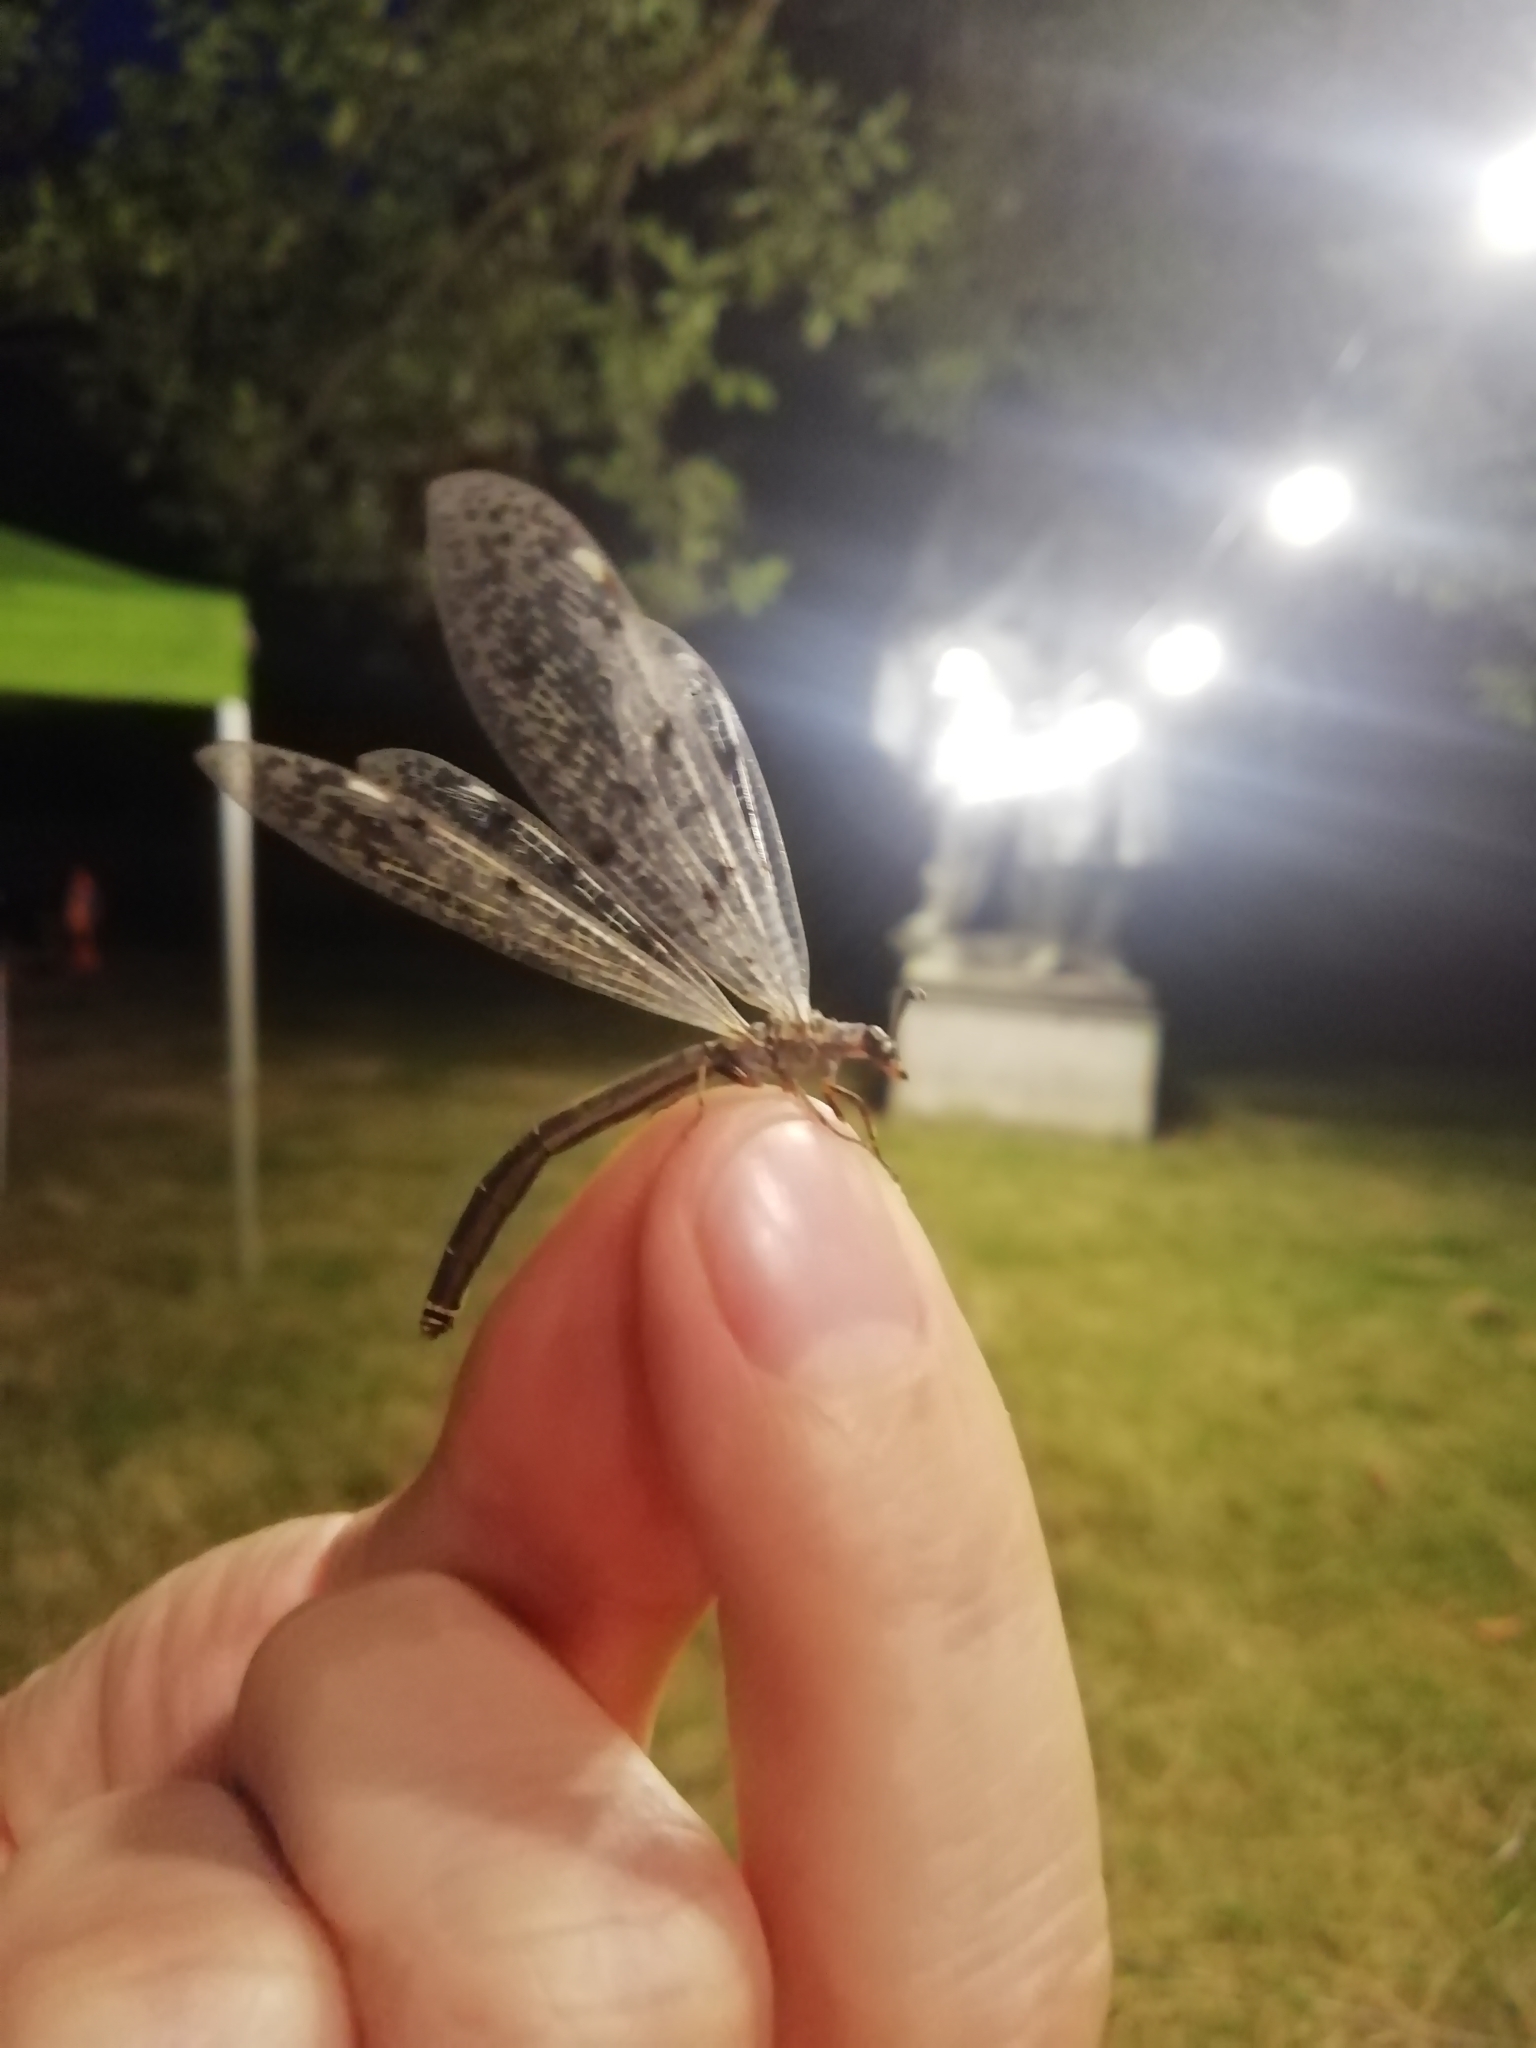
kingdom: Animalia
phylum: Arthropoda
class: Insecta
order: Neuroptera
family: Myrmeleontidae
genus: Euroleon
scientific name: Euroleon nostras
